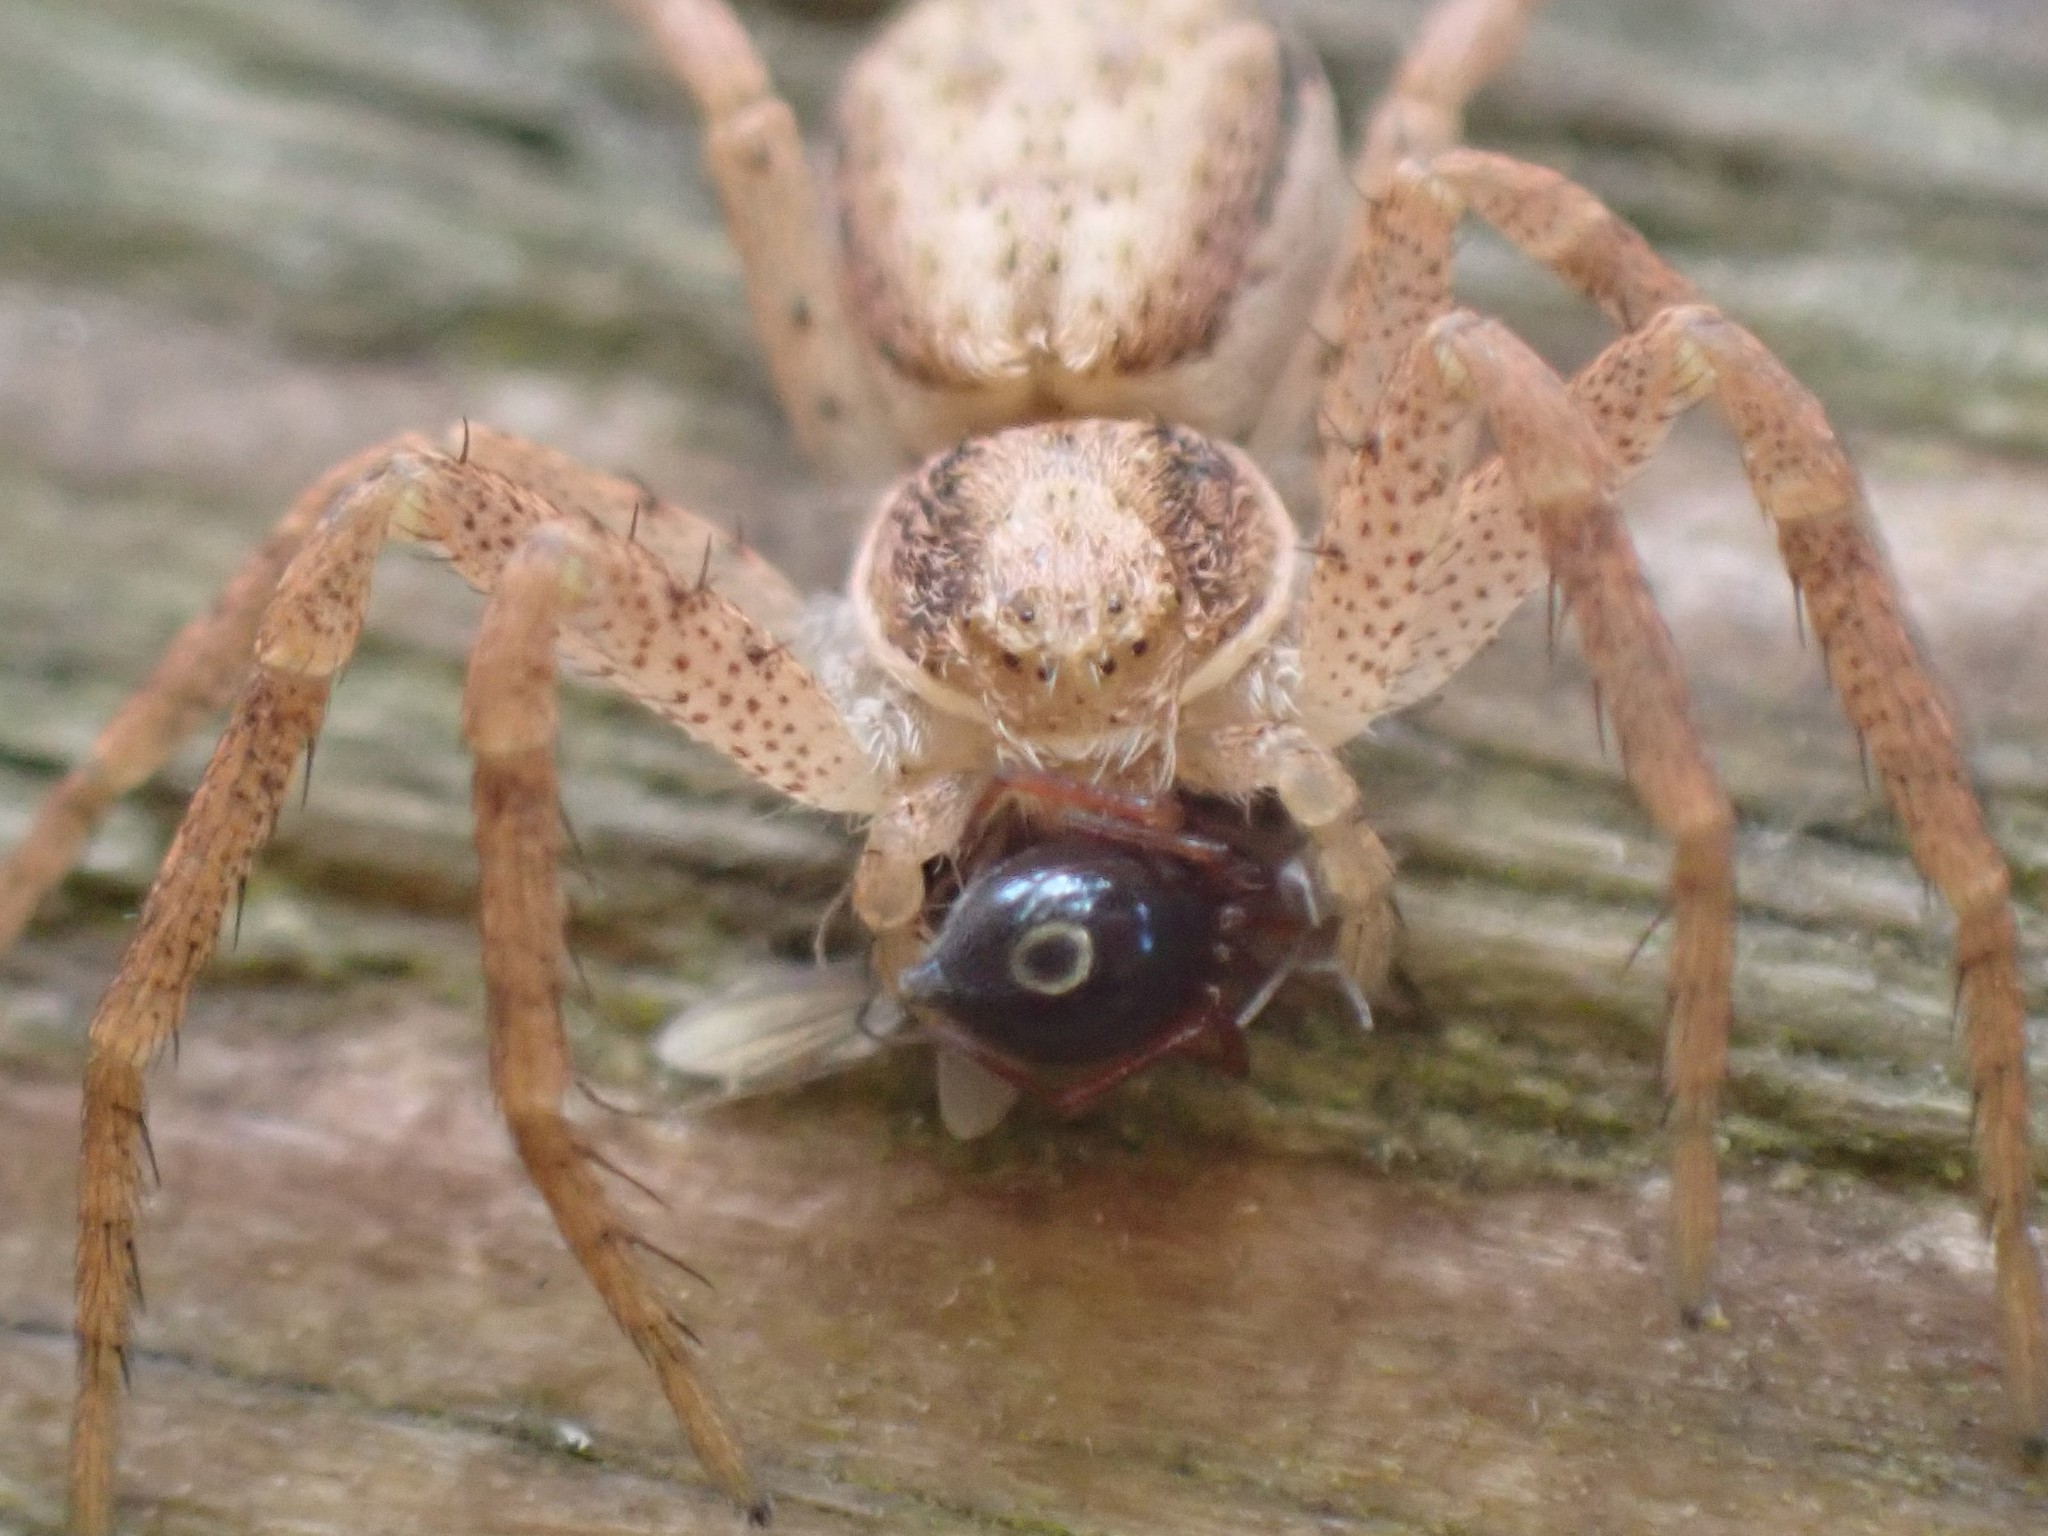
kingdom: Animalia
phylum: Arthropoda
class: Arachnida
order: Araneae
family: Philodromidae
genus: Philodromus
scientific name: Philodromus dispar
